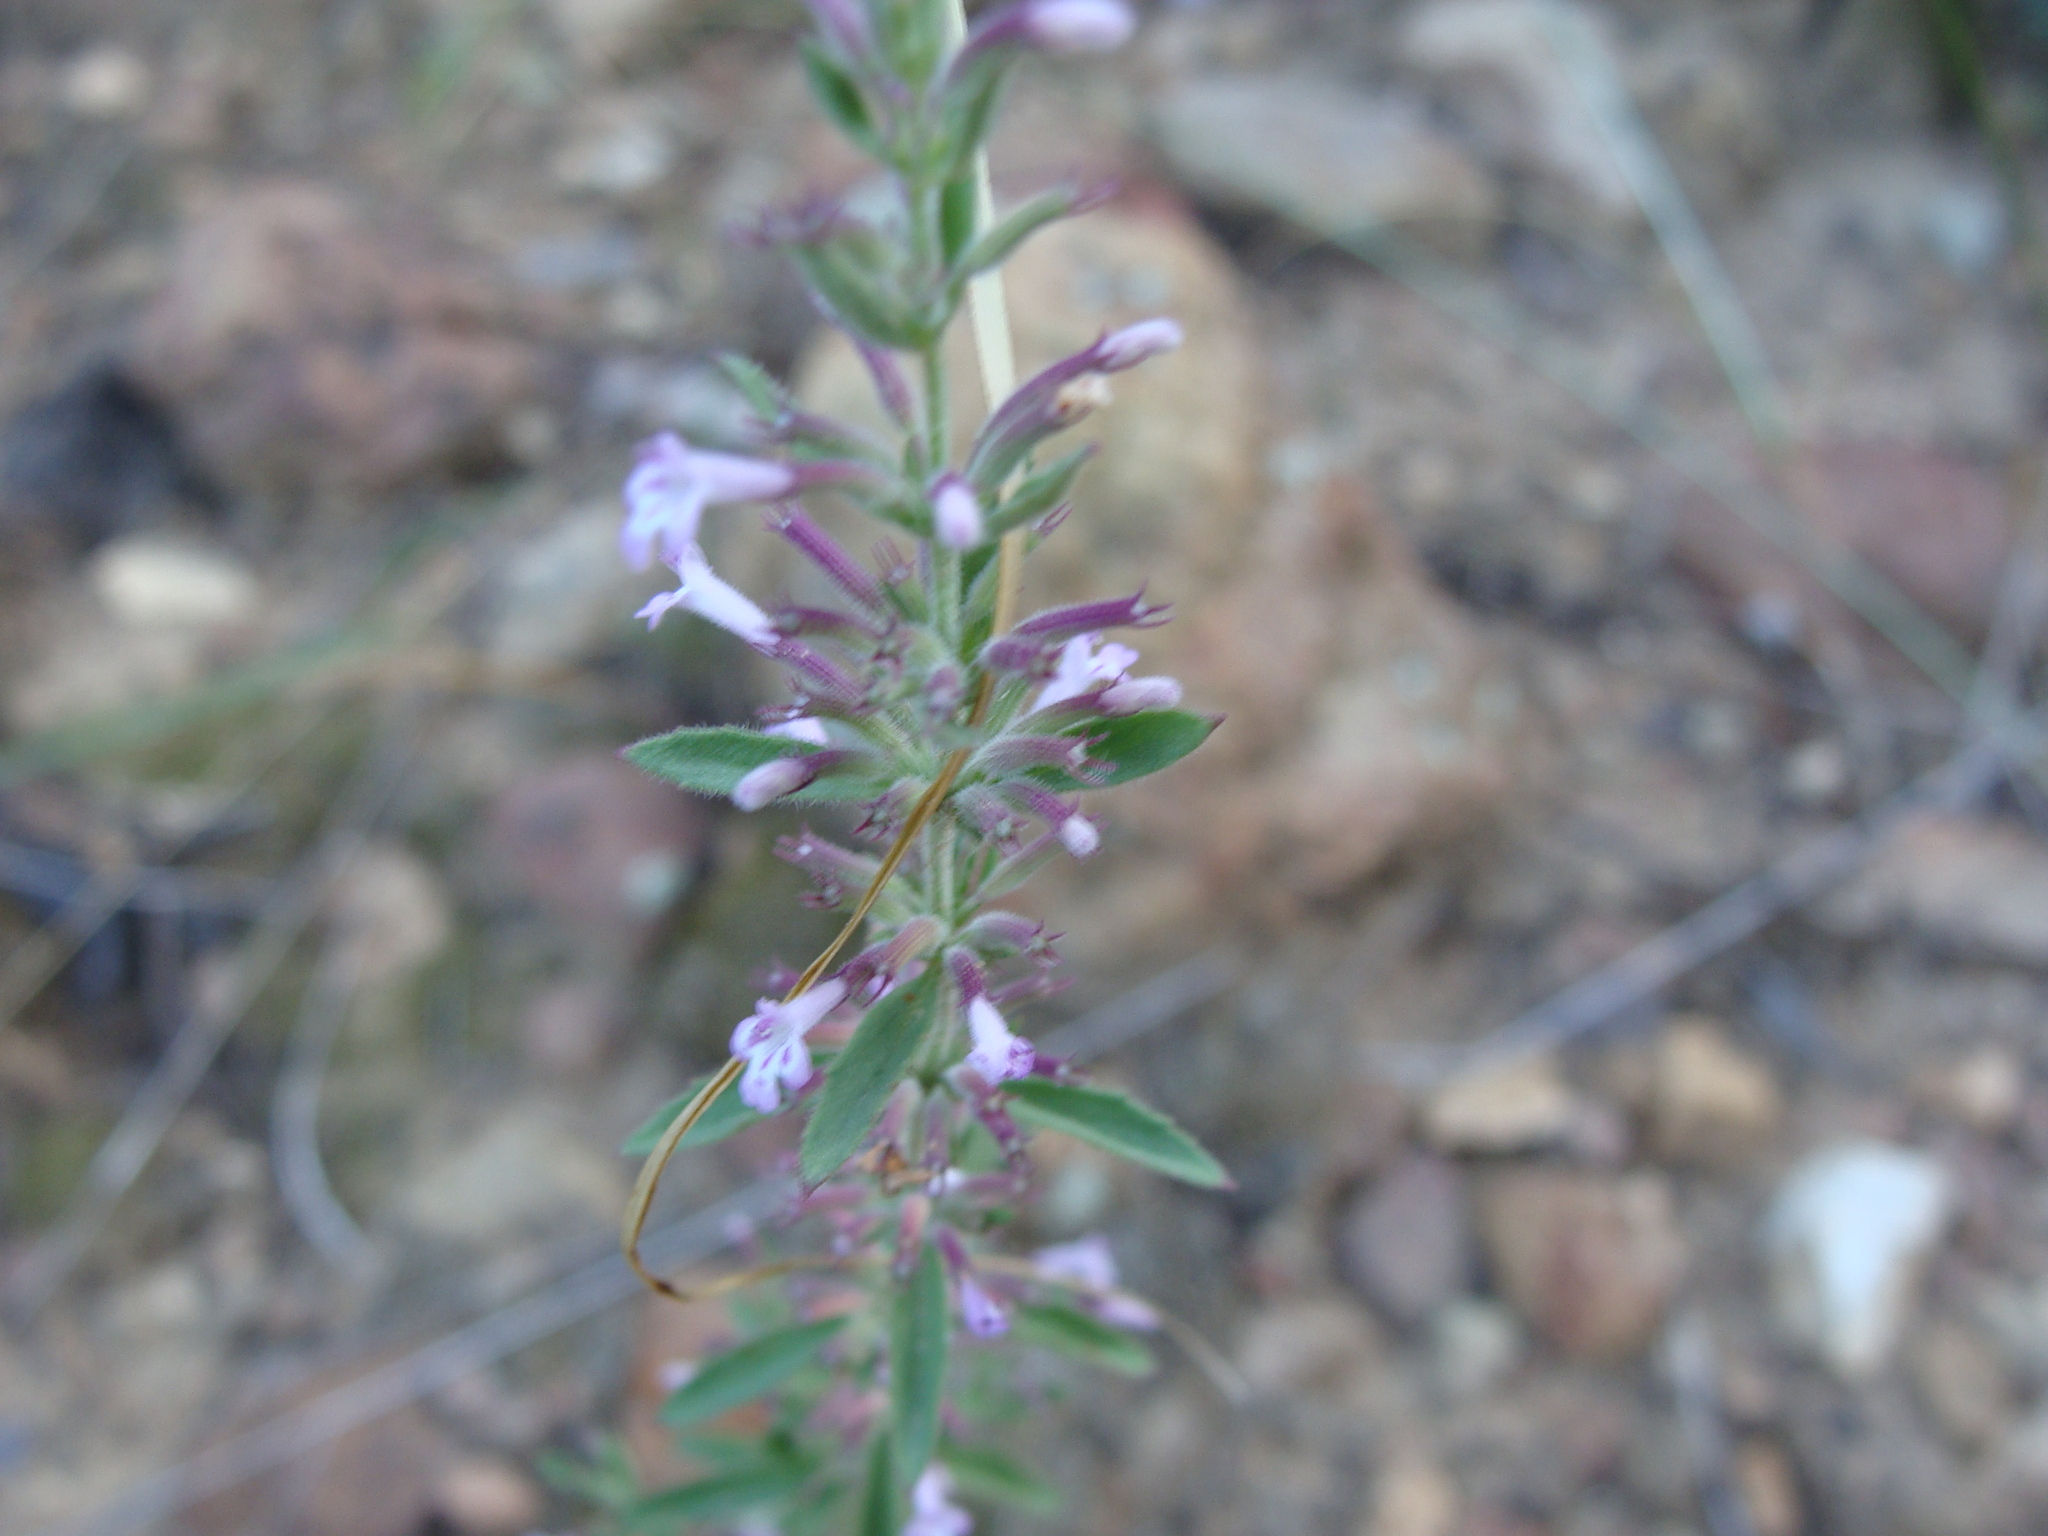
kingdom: Plantae
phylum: Tracheophyta
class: Magnoliopsida
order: Lamiales
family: Lamiaceae
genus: Hedeoma
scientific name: Hedeoma dentata
